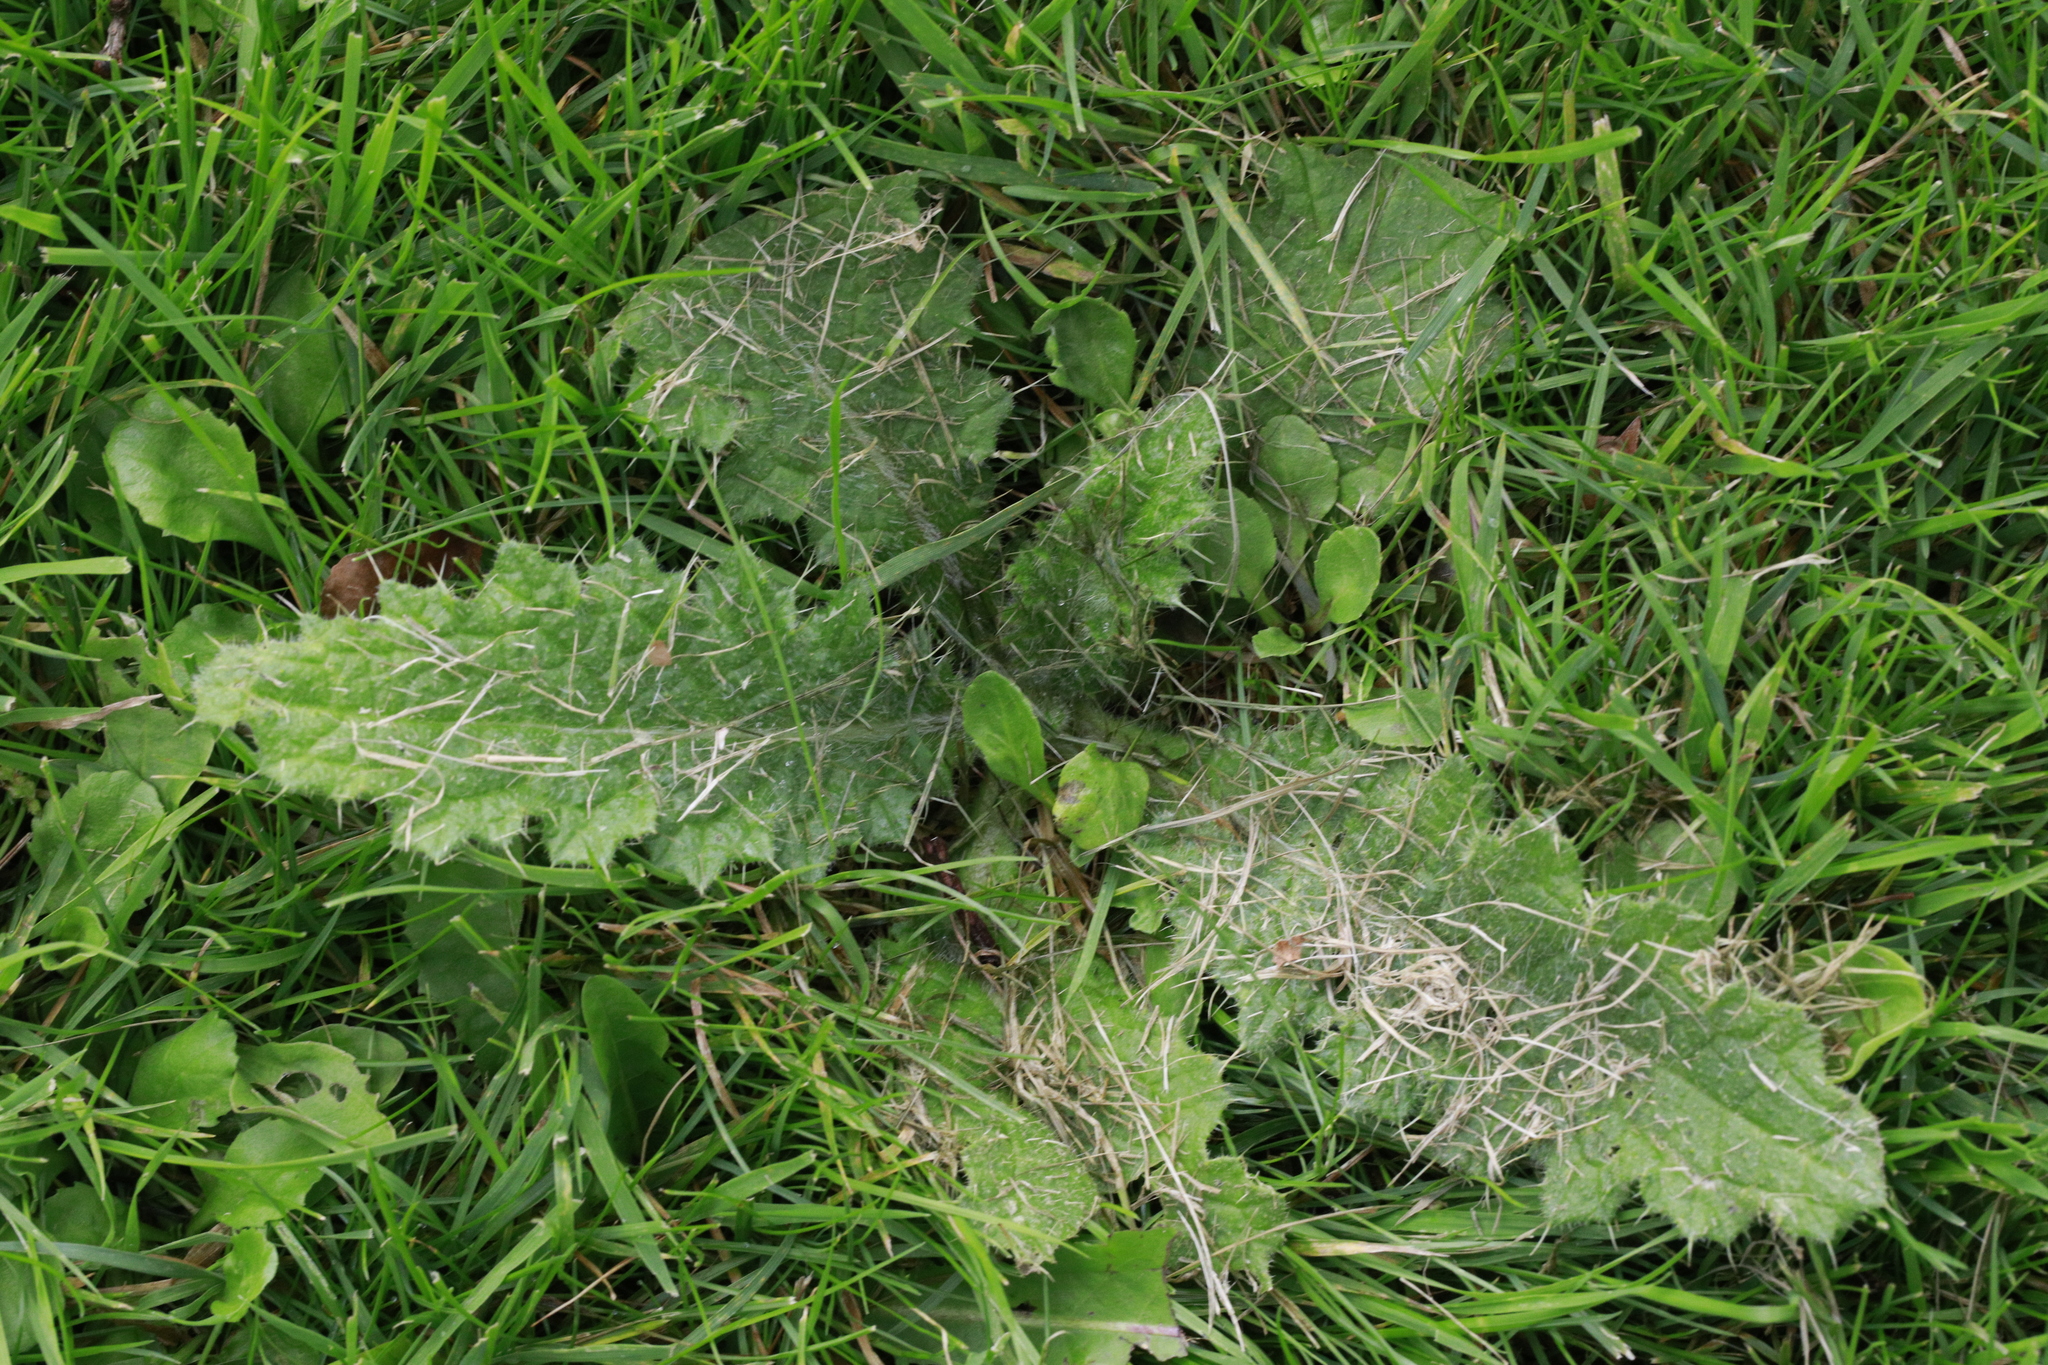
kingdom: Plantae
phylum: Tracheophyta
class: Magnoliopsida
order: Asterales
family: Asteraceae
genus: Cirsium
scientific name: Cirsium vulgare
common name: Bull thistle
